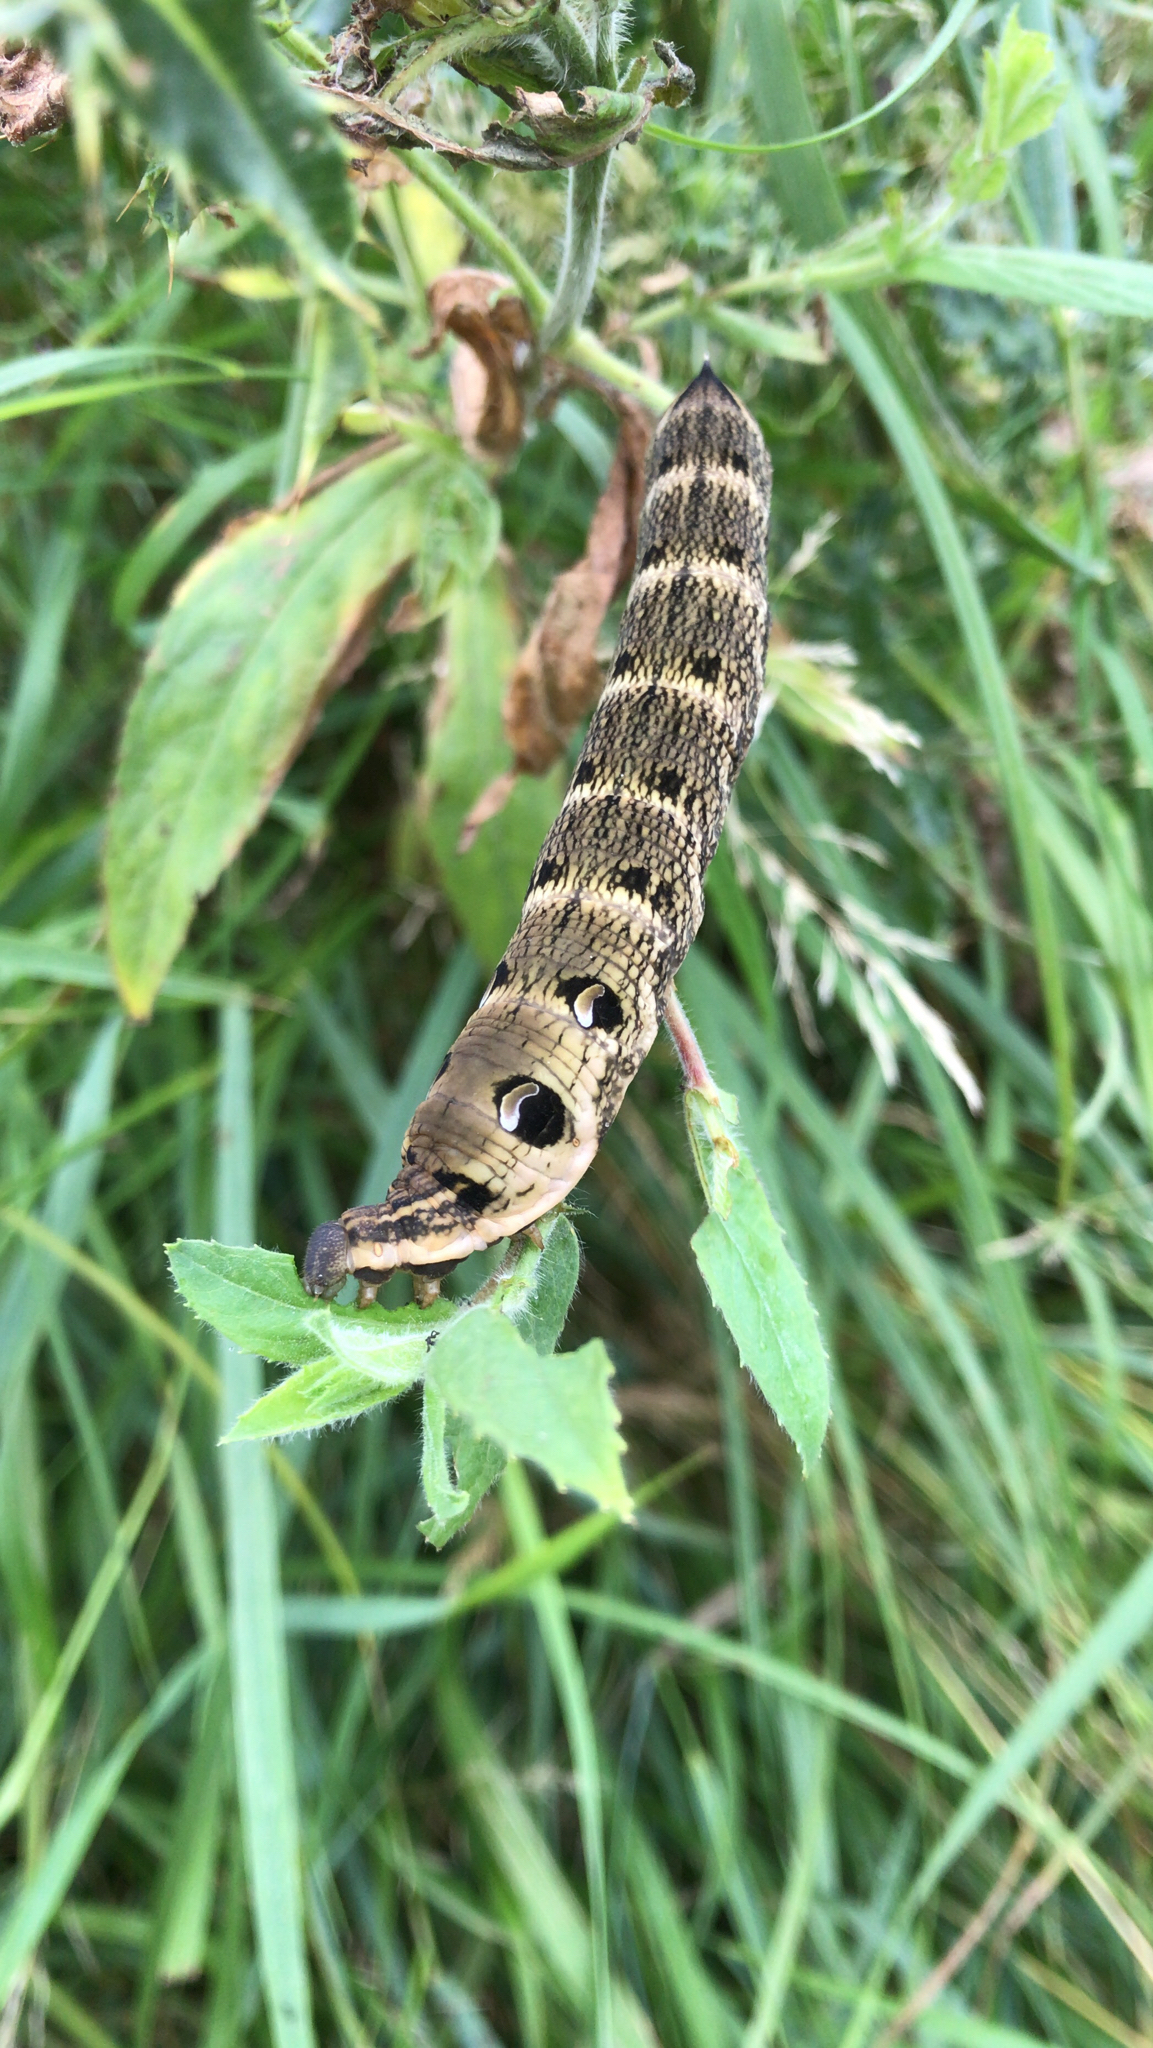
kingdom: Animalia
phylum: Arthropoda
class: Insecta
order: Lepidoptera
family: Sphingidae
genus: Deilephila
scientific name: Deilephila elpenor
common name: Elephant hawk-moth
